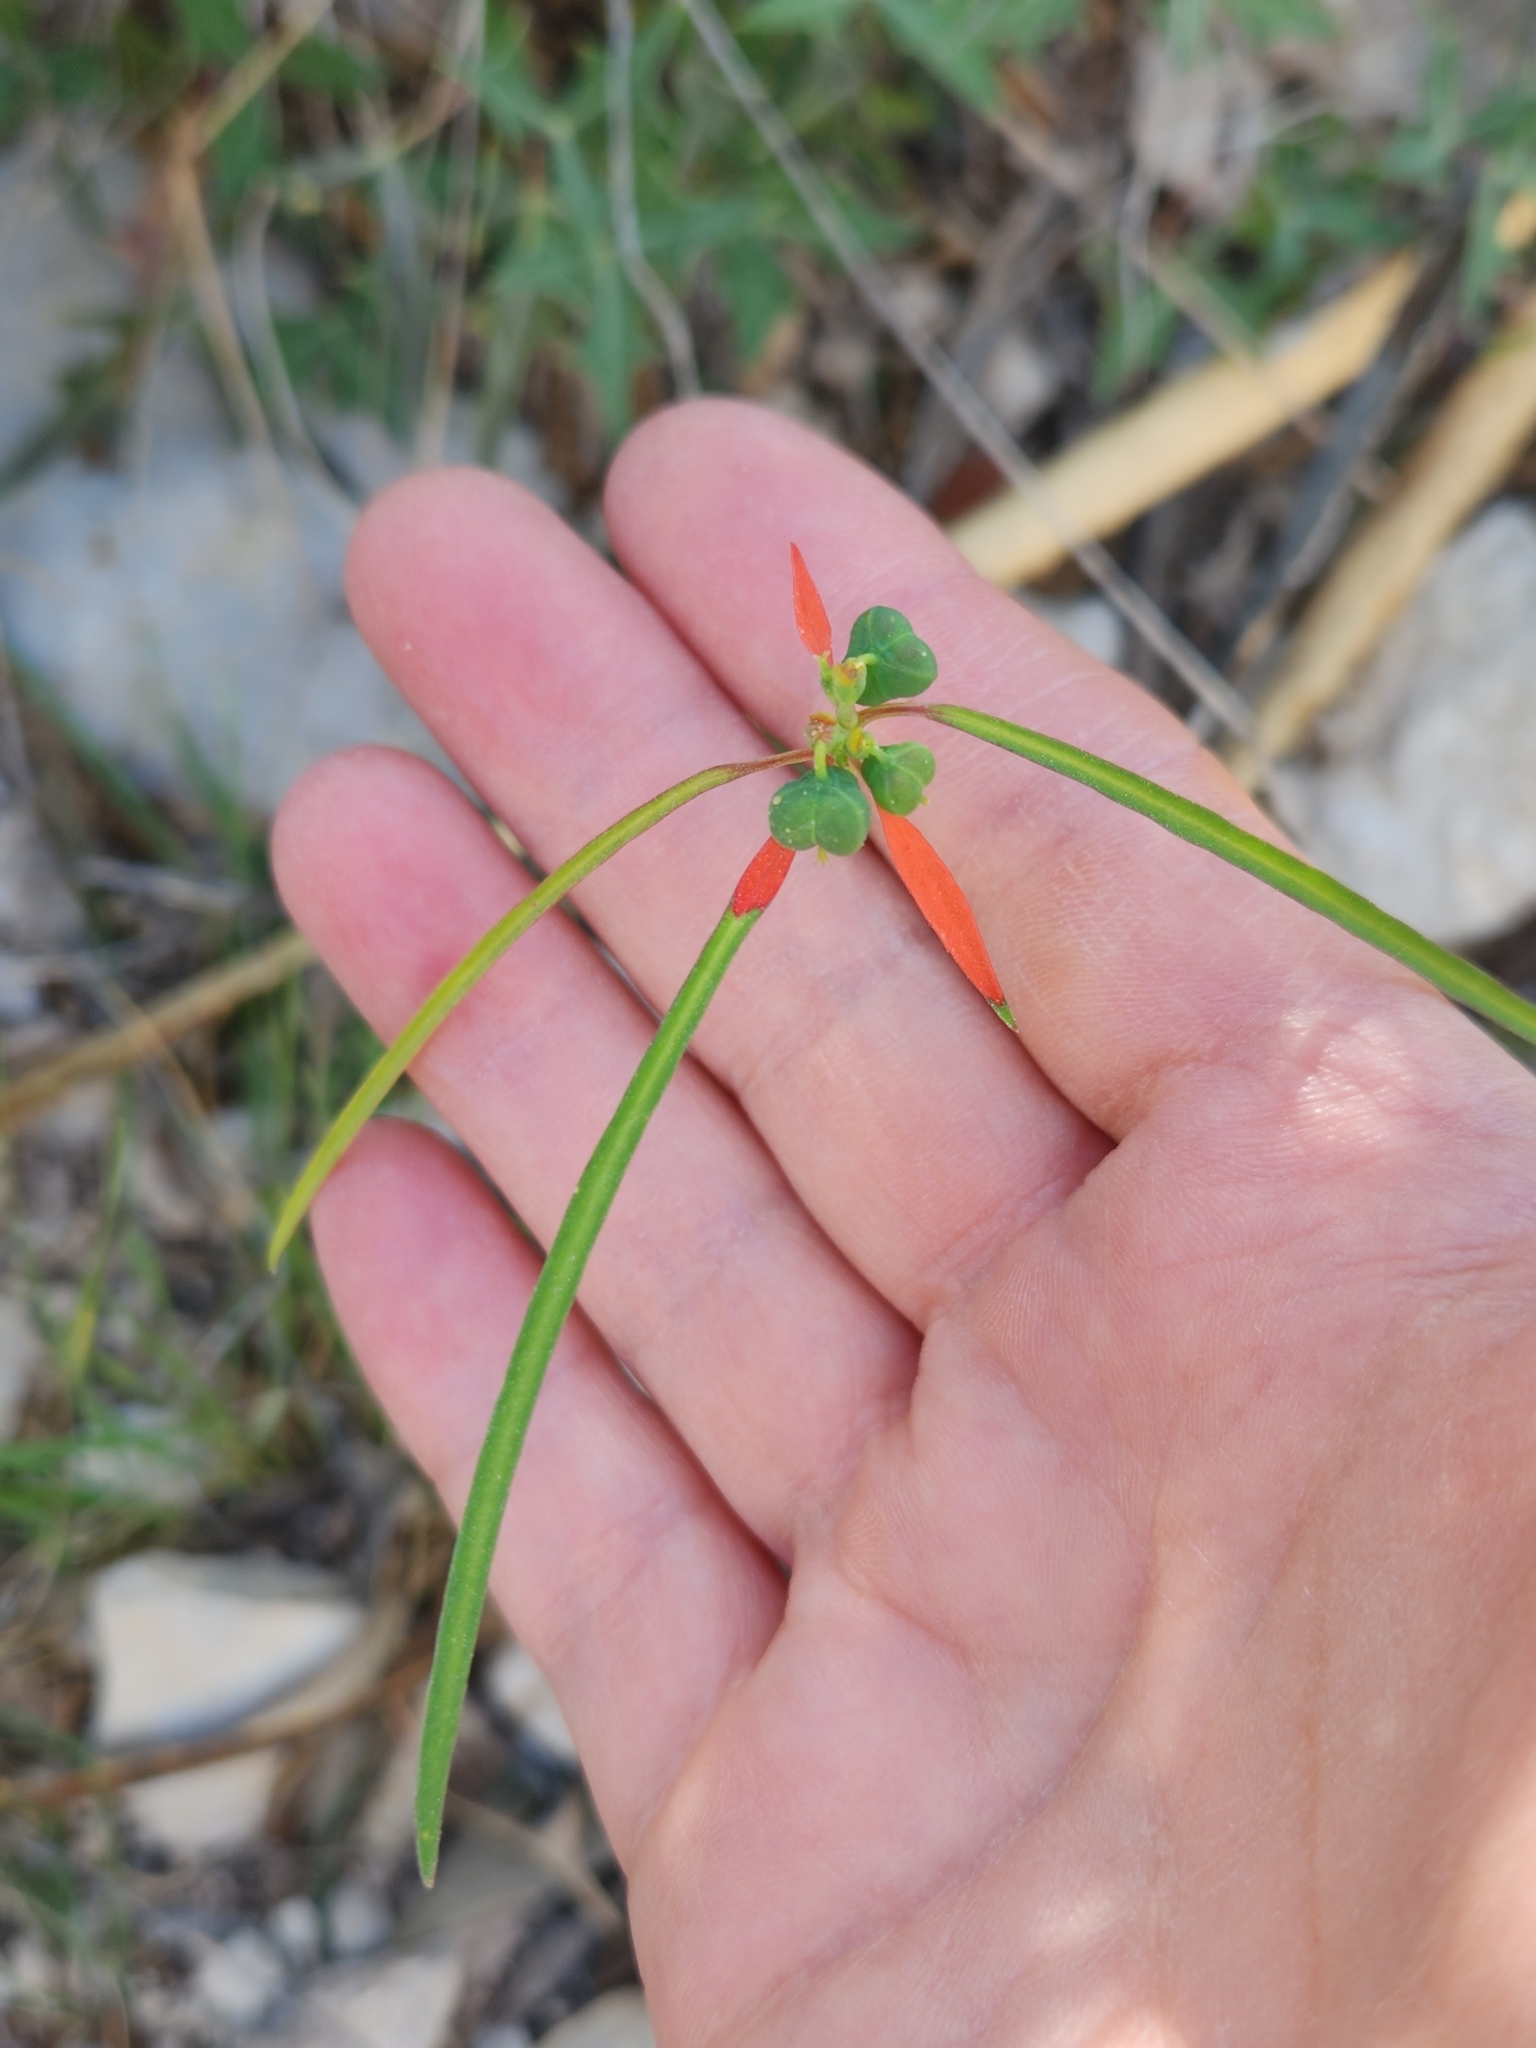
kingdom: Plantae
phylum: Tracheophyta
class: Magnoliopsida
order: Malpighiales
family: Euphorbiaceae
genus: Euphorbia
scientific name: Euphorbia heterophylla
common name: Mexican fireplant
